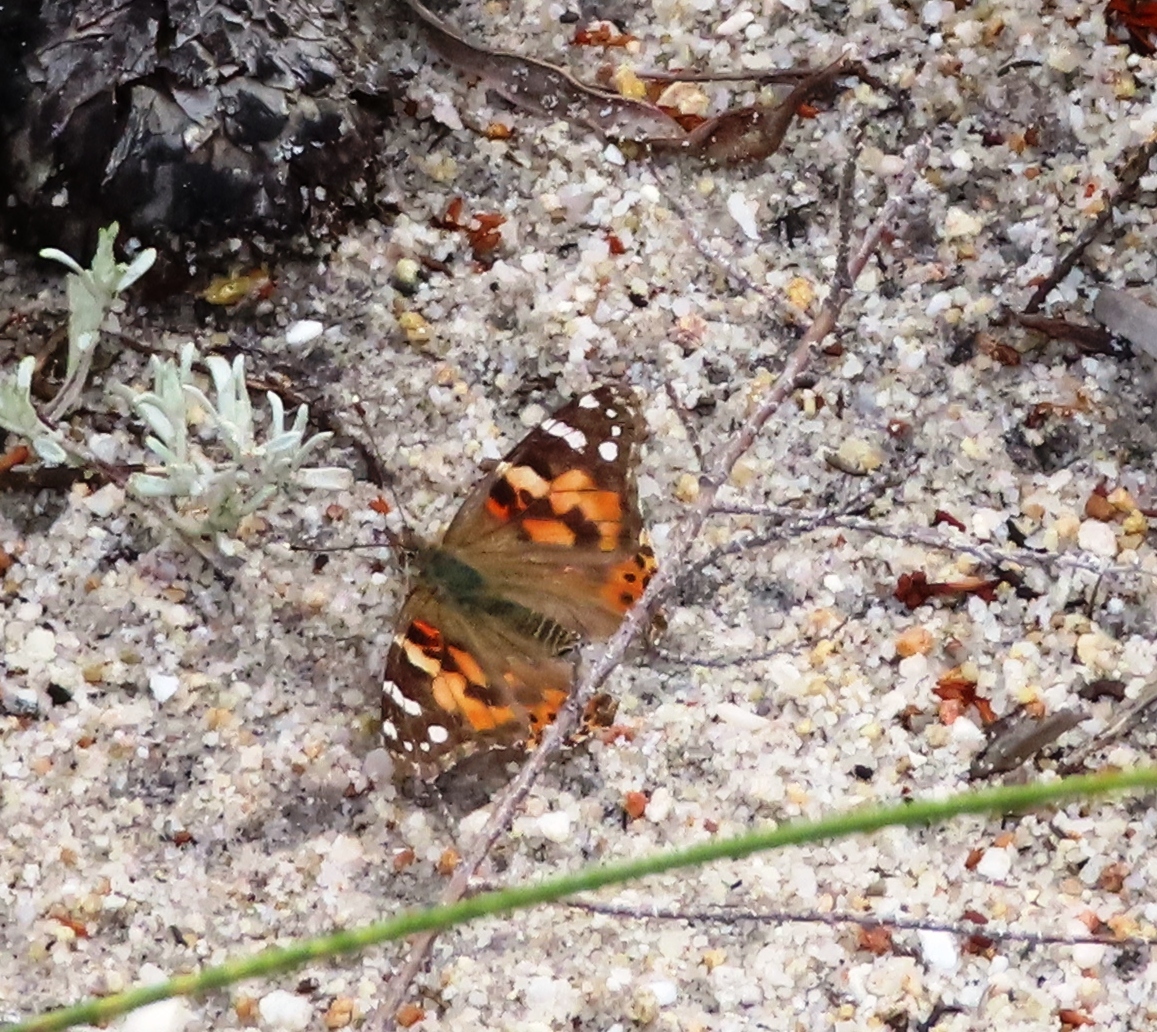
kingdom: Animalia
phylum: Arthropoda
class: Insecta
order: Lepidoptera
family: Nymphalidae
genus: Vanessa
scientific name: Vanessa cardui
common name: Painted lady
